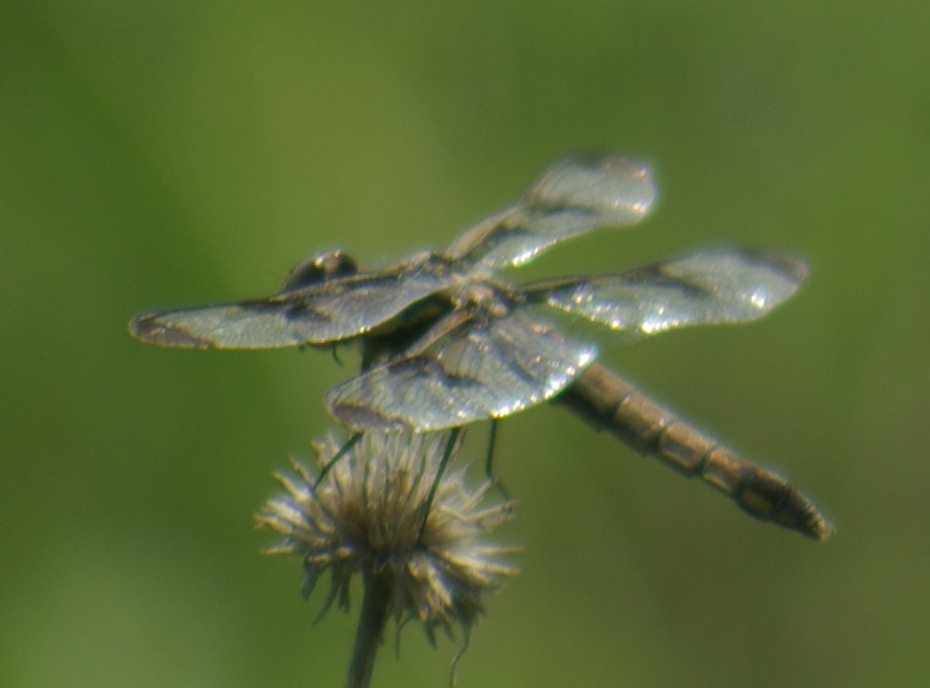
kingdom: Animalia
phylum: Arthropoda
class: Insecta
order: Odonata
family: Libellulidae
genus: Libellula
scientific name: Libellula pulchella
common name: Twelve-spotted skimmer
